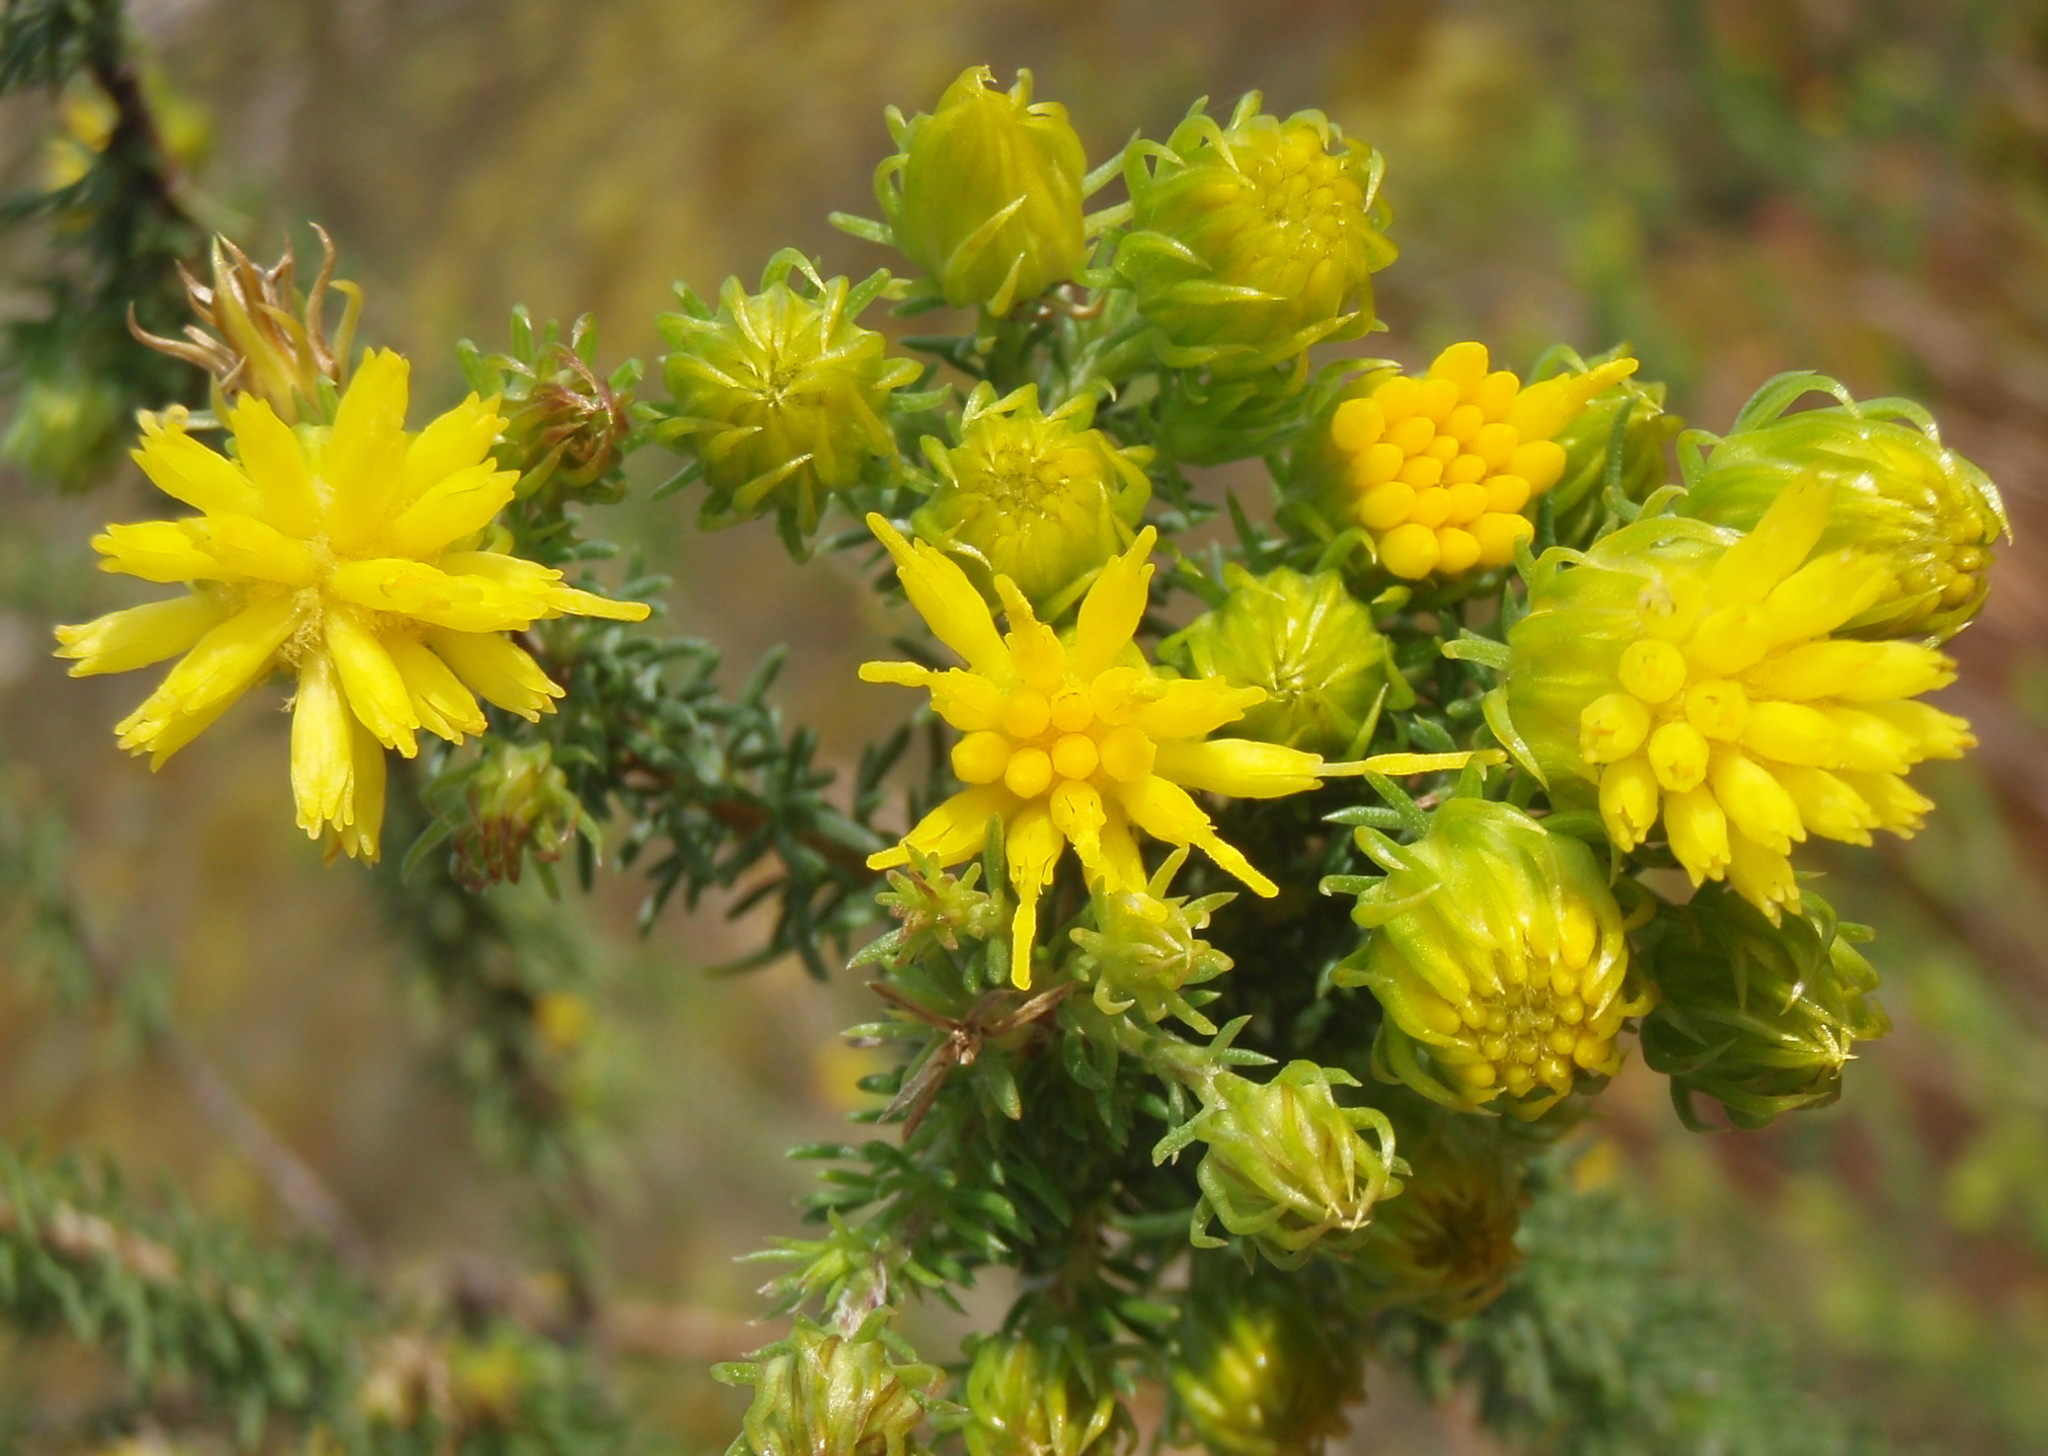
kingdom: Plantae
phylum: Tracheophyta
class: Magnoliopsida
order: Asterales
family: Asteraceae
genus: Pteronia
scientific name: Pteronia camphorata
